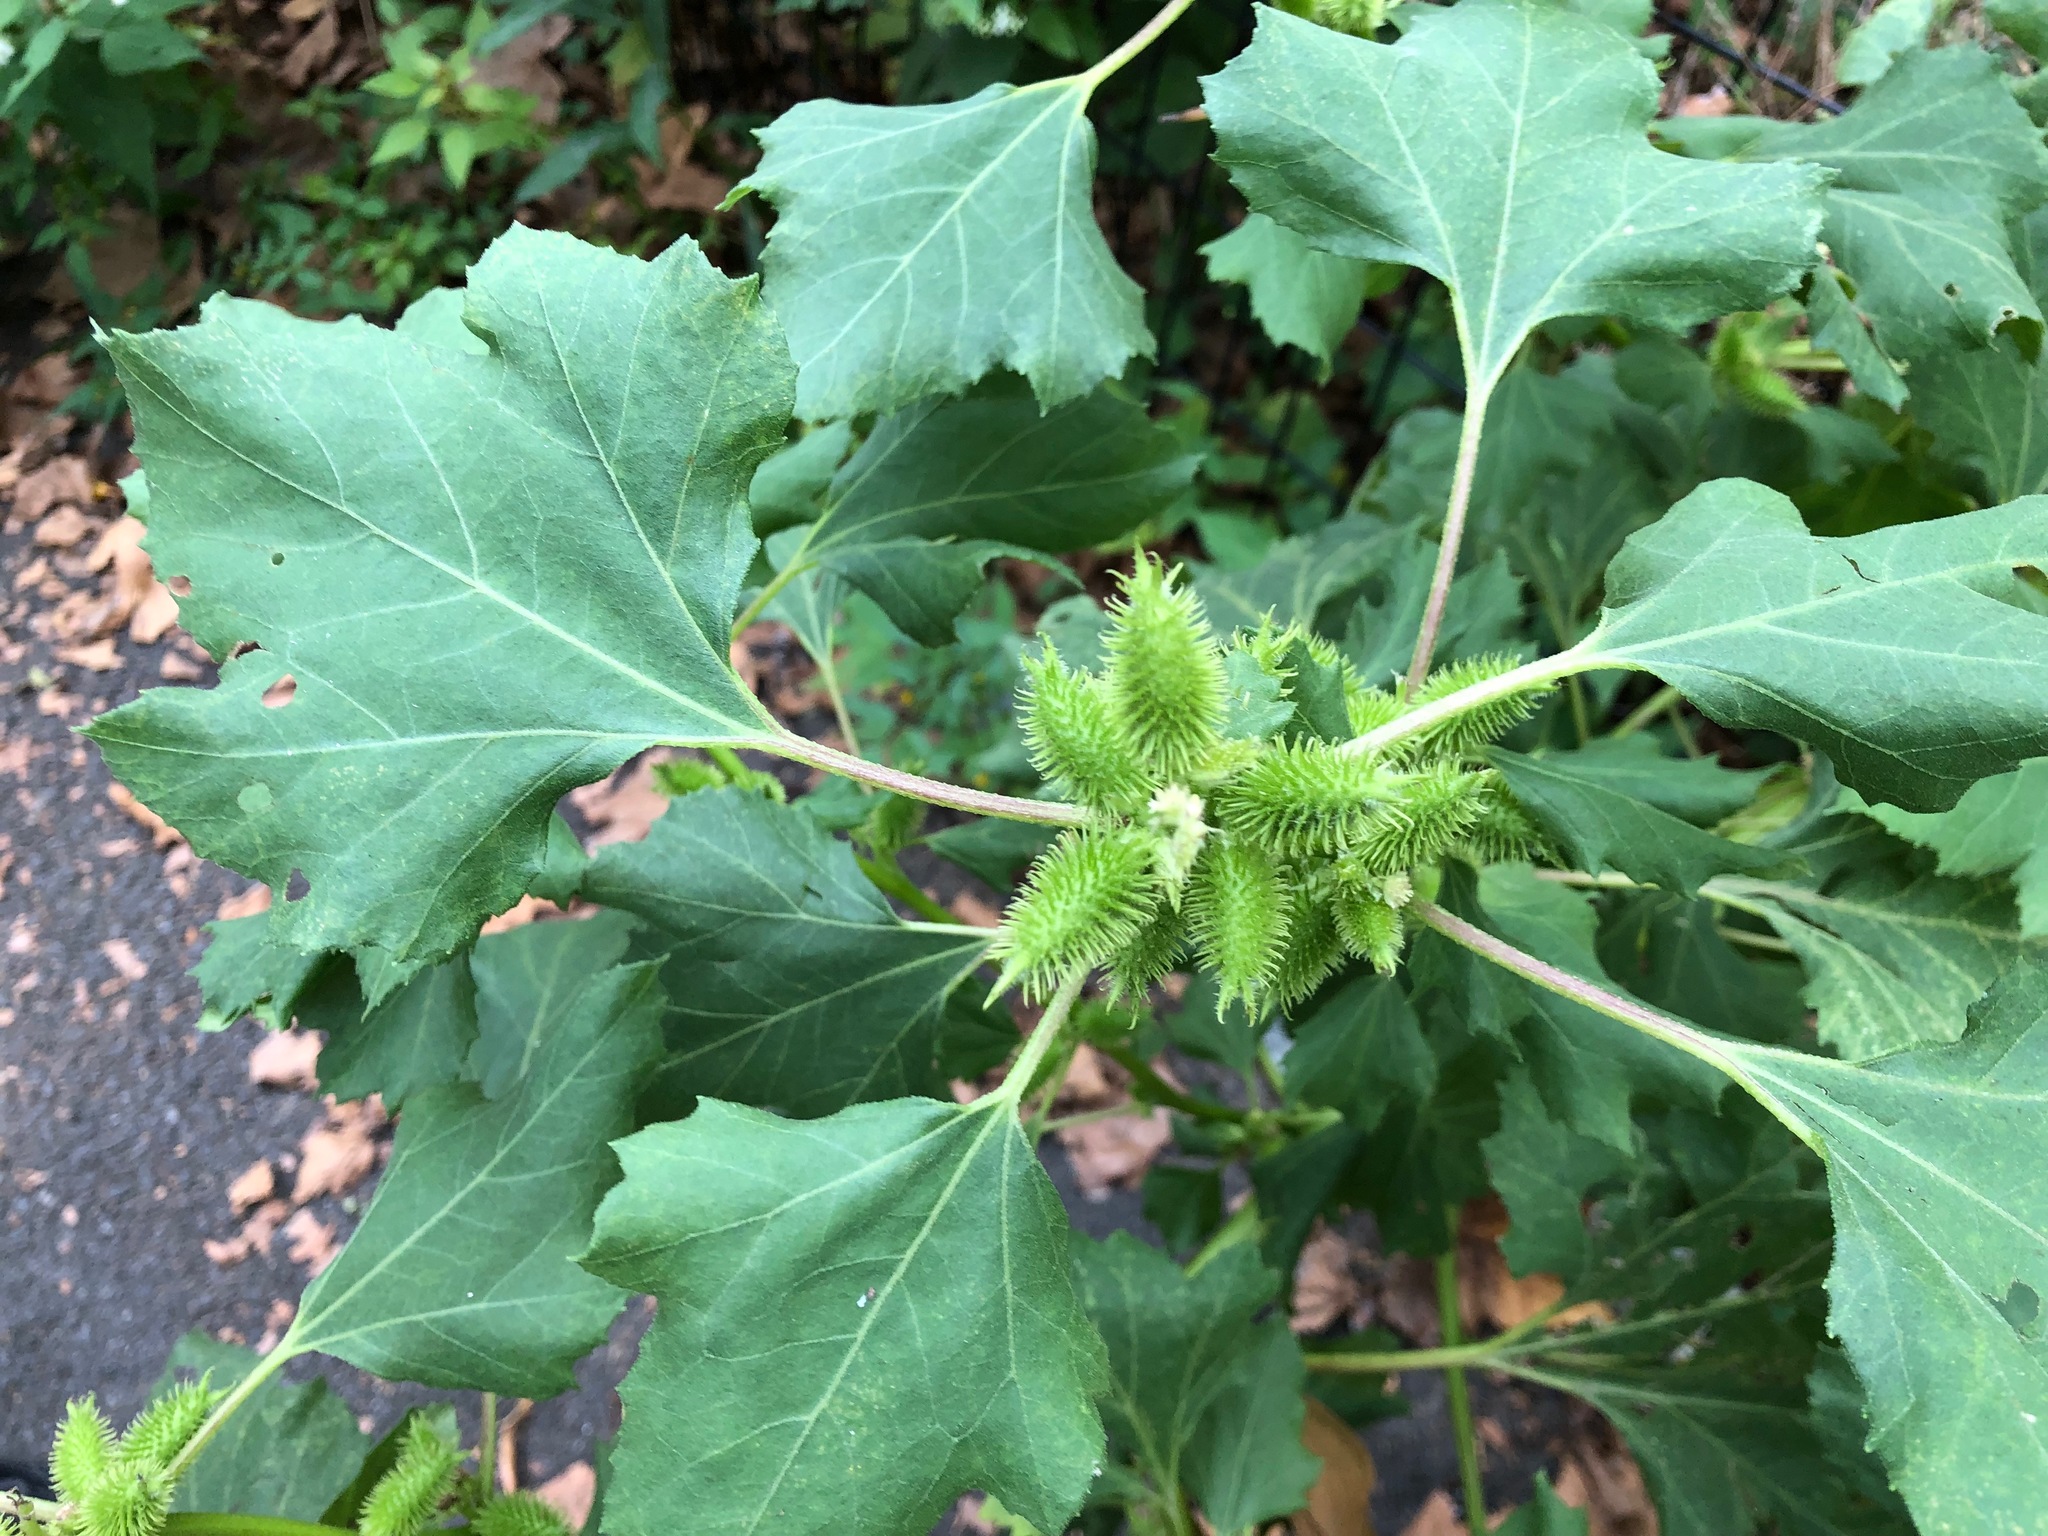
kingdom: Plantae
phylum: Tracheophyta
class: Magnoliopsida
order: Asterales
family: Asteraceae
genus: Xanthium
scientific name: Xanthium strumarium
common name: Rough cocklebur
